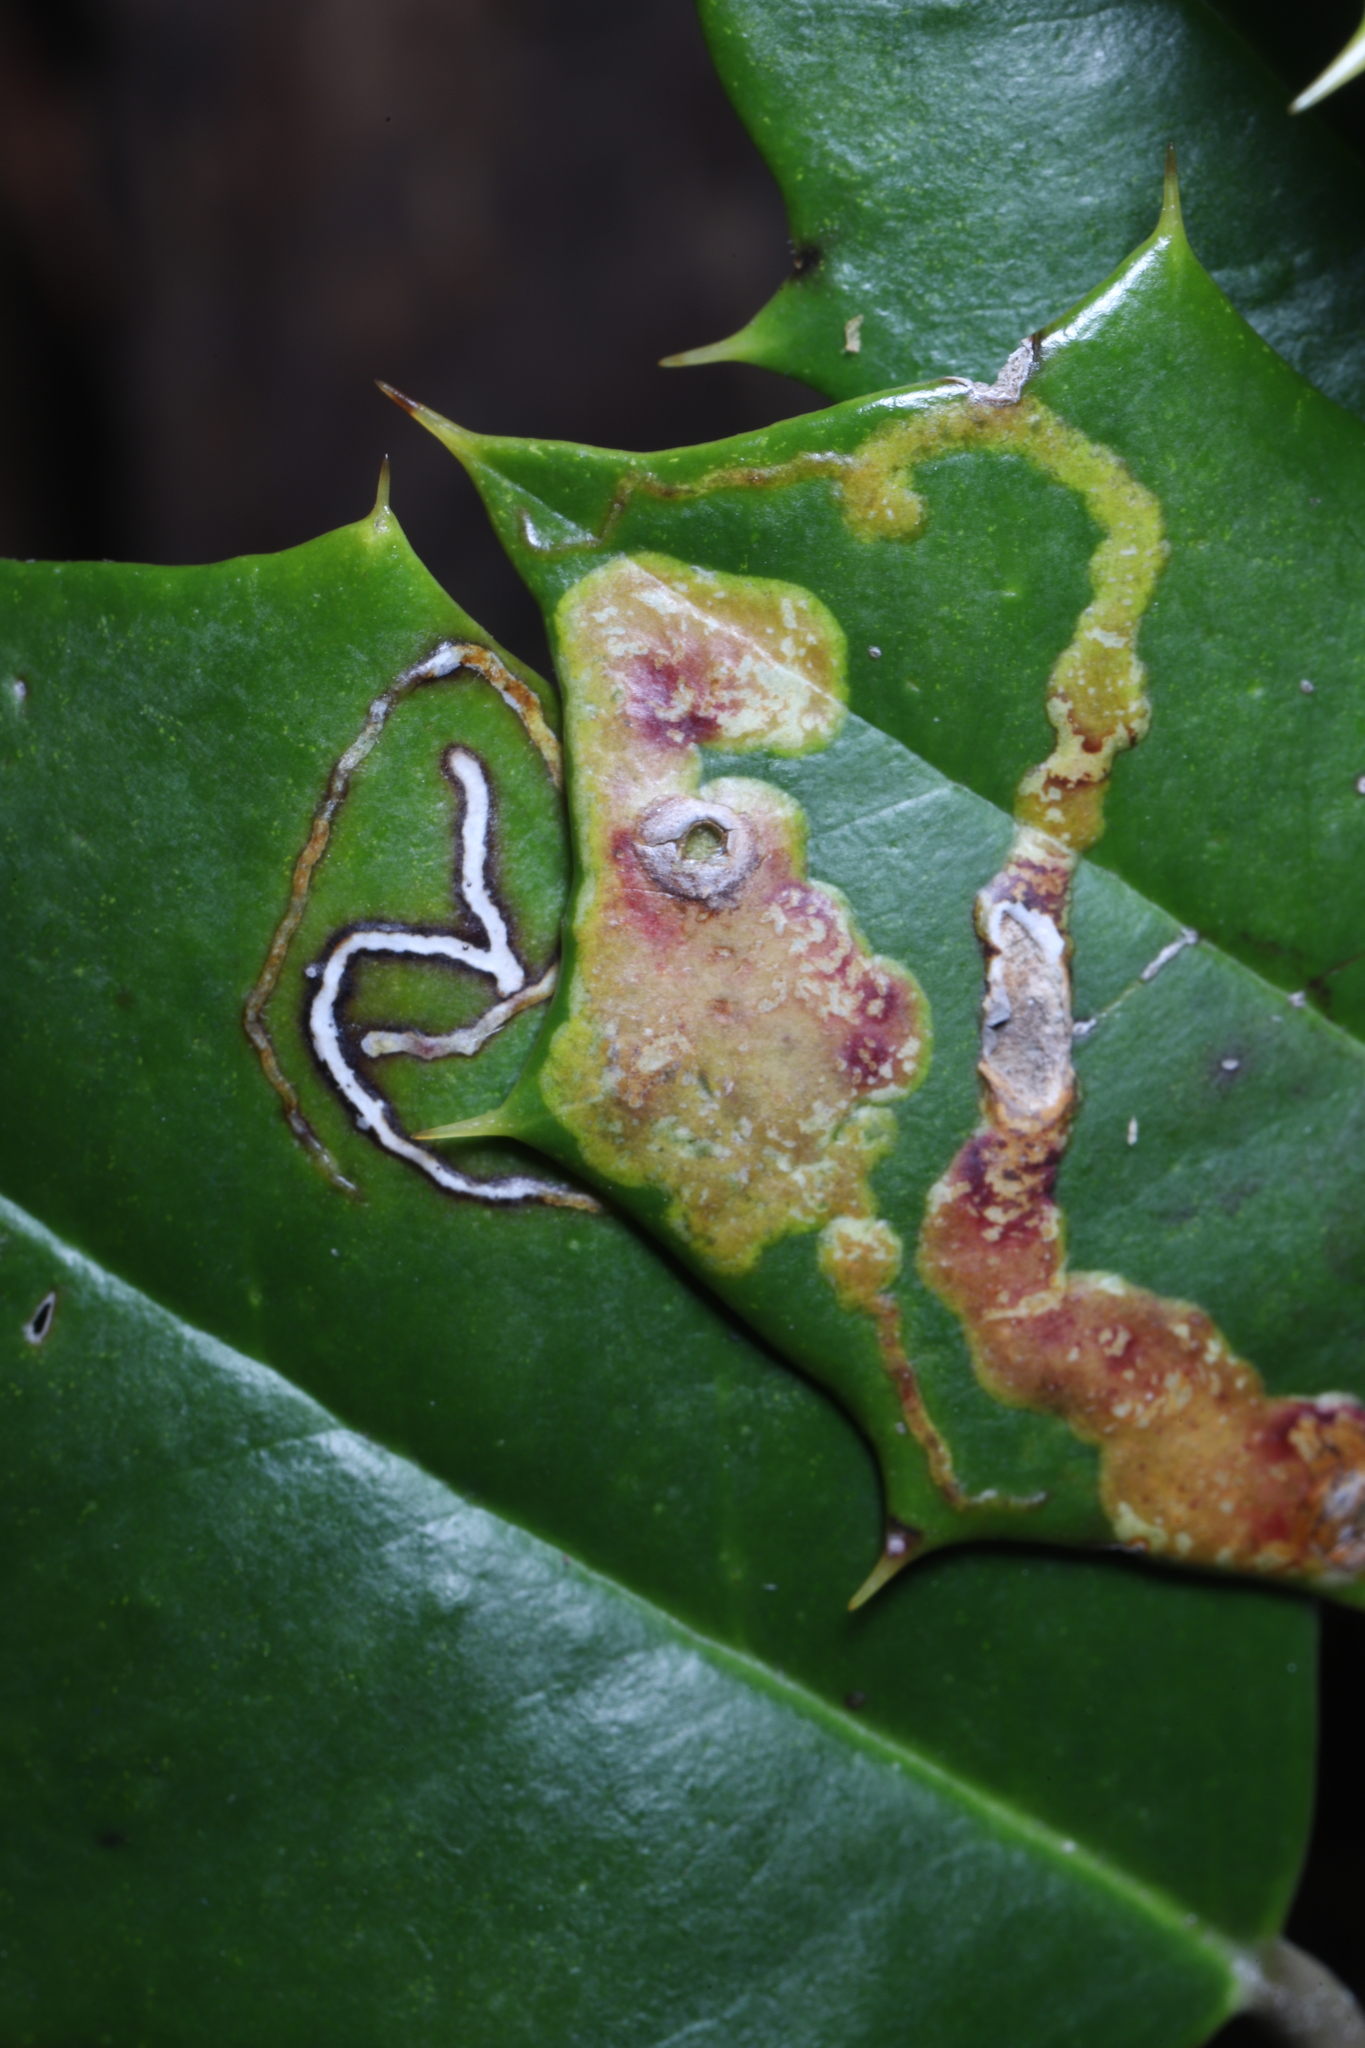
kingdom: Animalia
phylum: Arthropoda
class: Insecta
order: Diptera
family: Agromyzidae
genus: Phytomyza
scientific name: Phytomyza ilicicola
